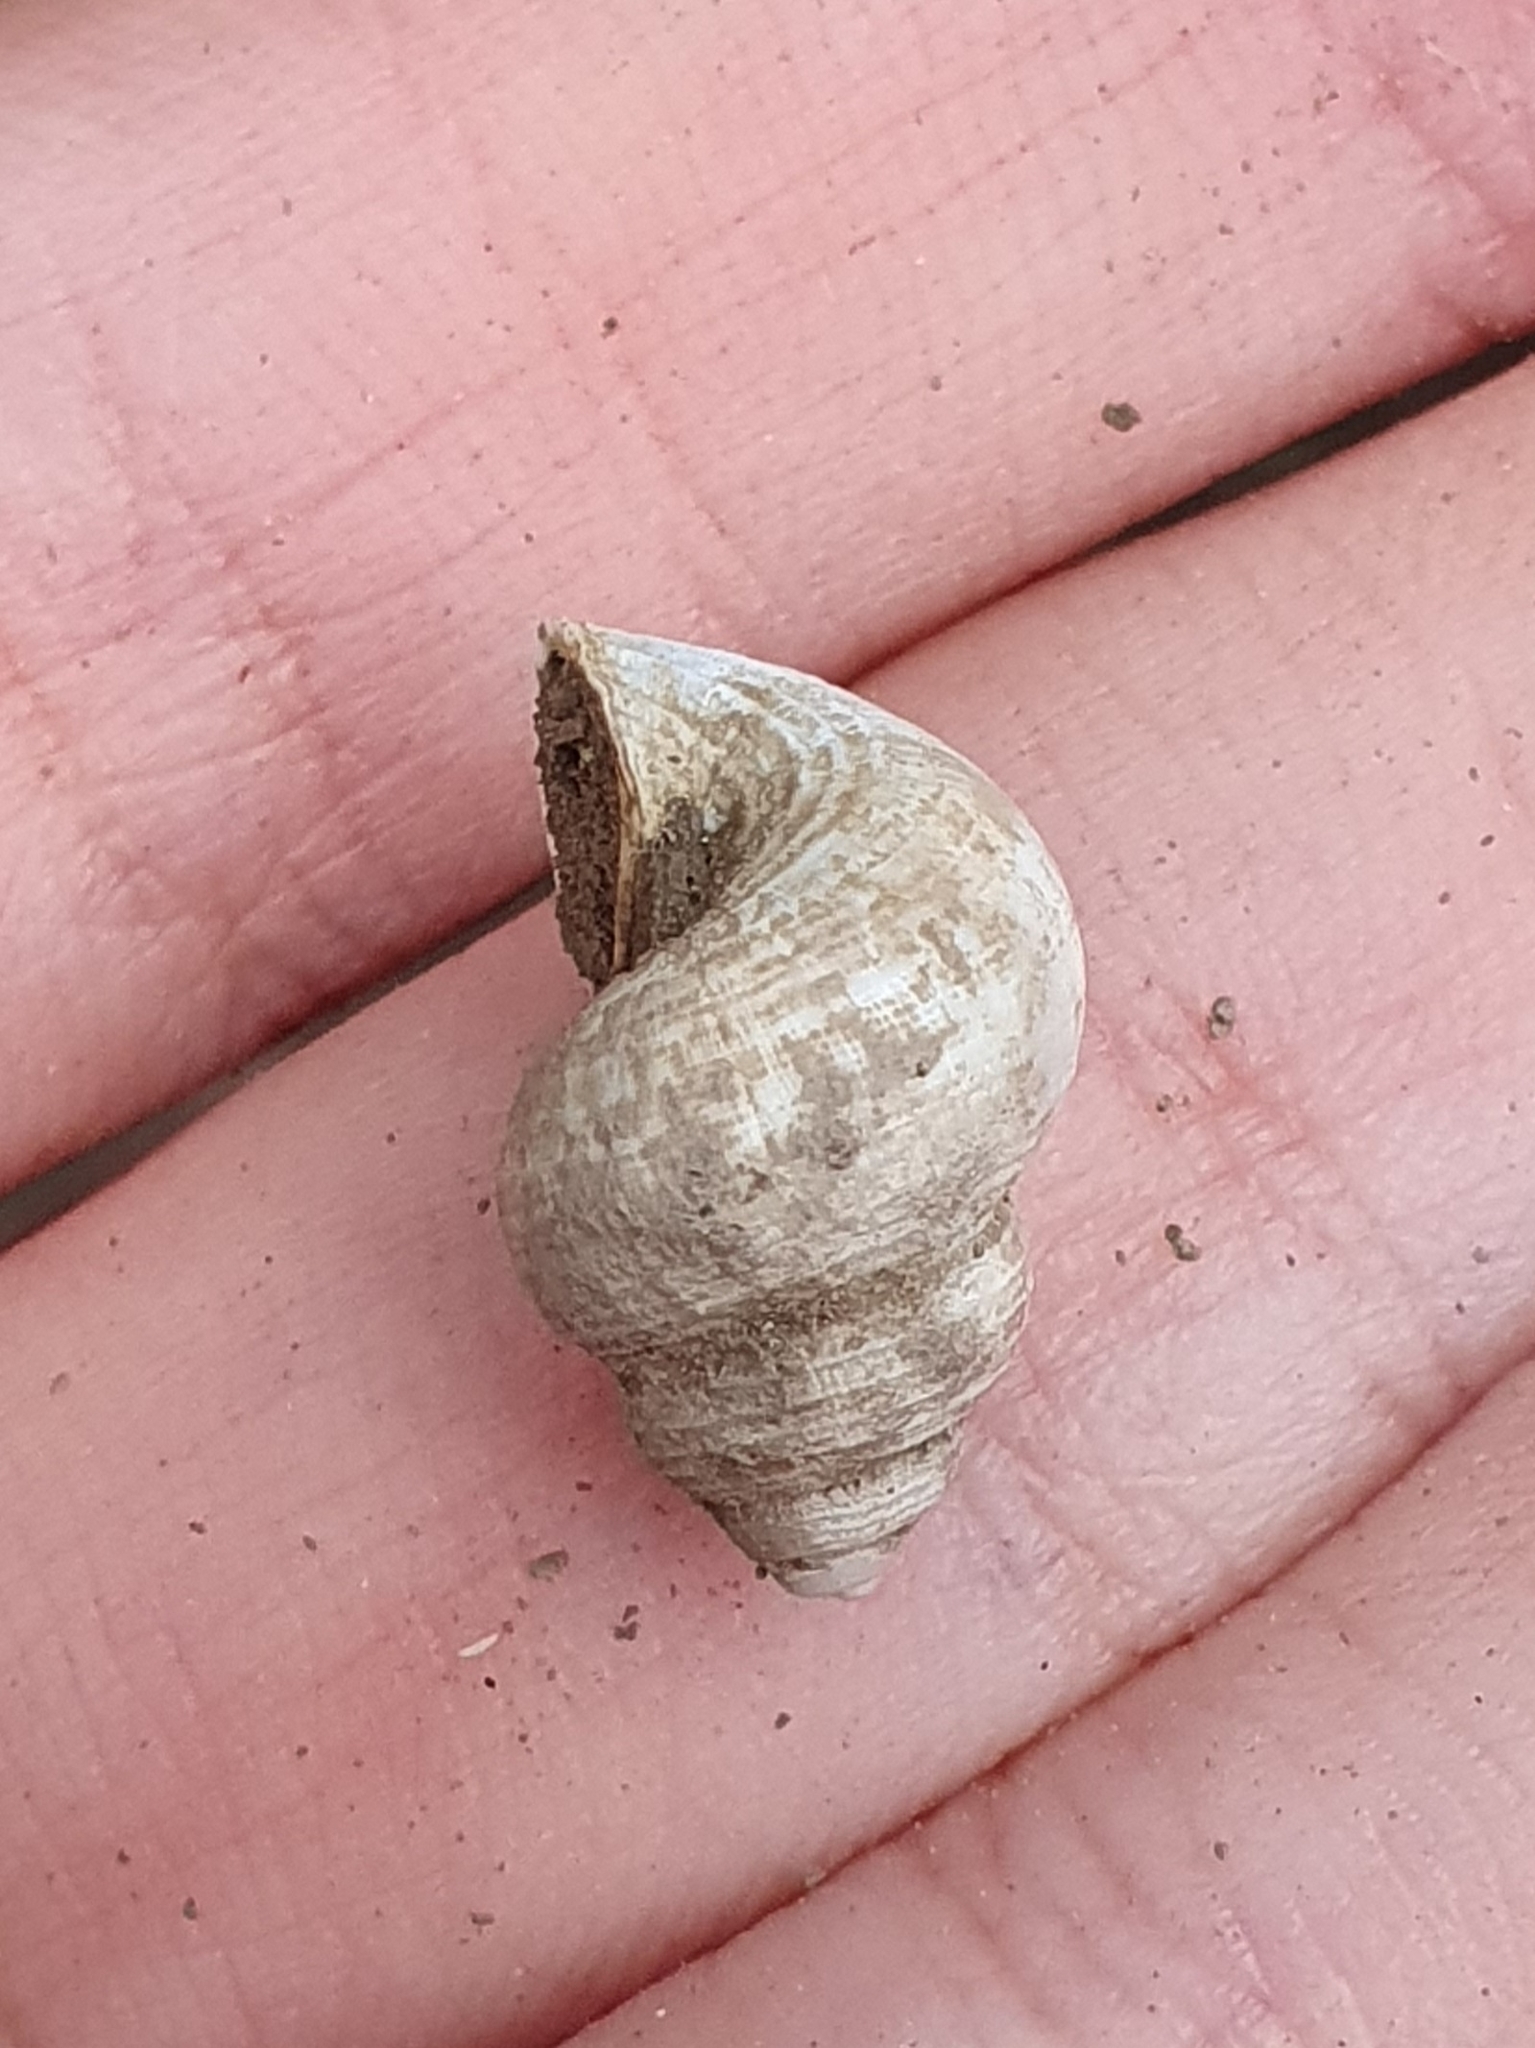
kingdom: Animalia
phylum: Mollusca
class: Gastropoda
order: Littorinimorpha
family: Pomatiidae
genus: Tudorella
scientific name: Tudorella sulcata
